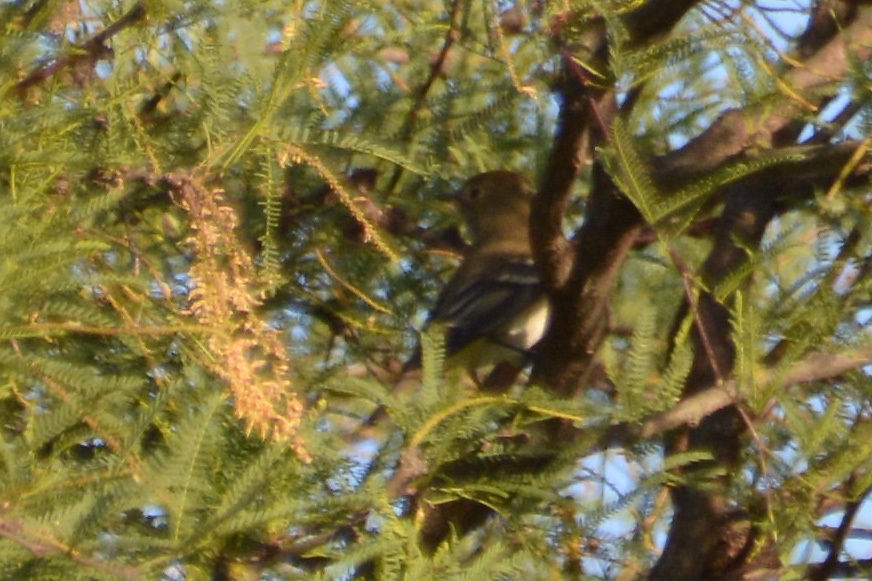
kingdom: Animalia
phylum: Chordata
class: Aves
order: Passeriformes
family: Tyrannidae
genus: Elaenia
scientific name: Elaenia parvirostris
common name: Small-billed elaenia
